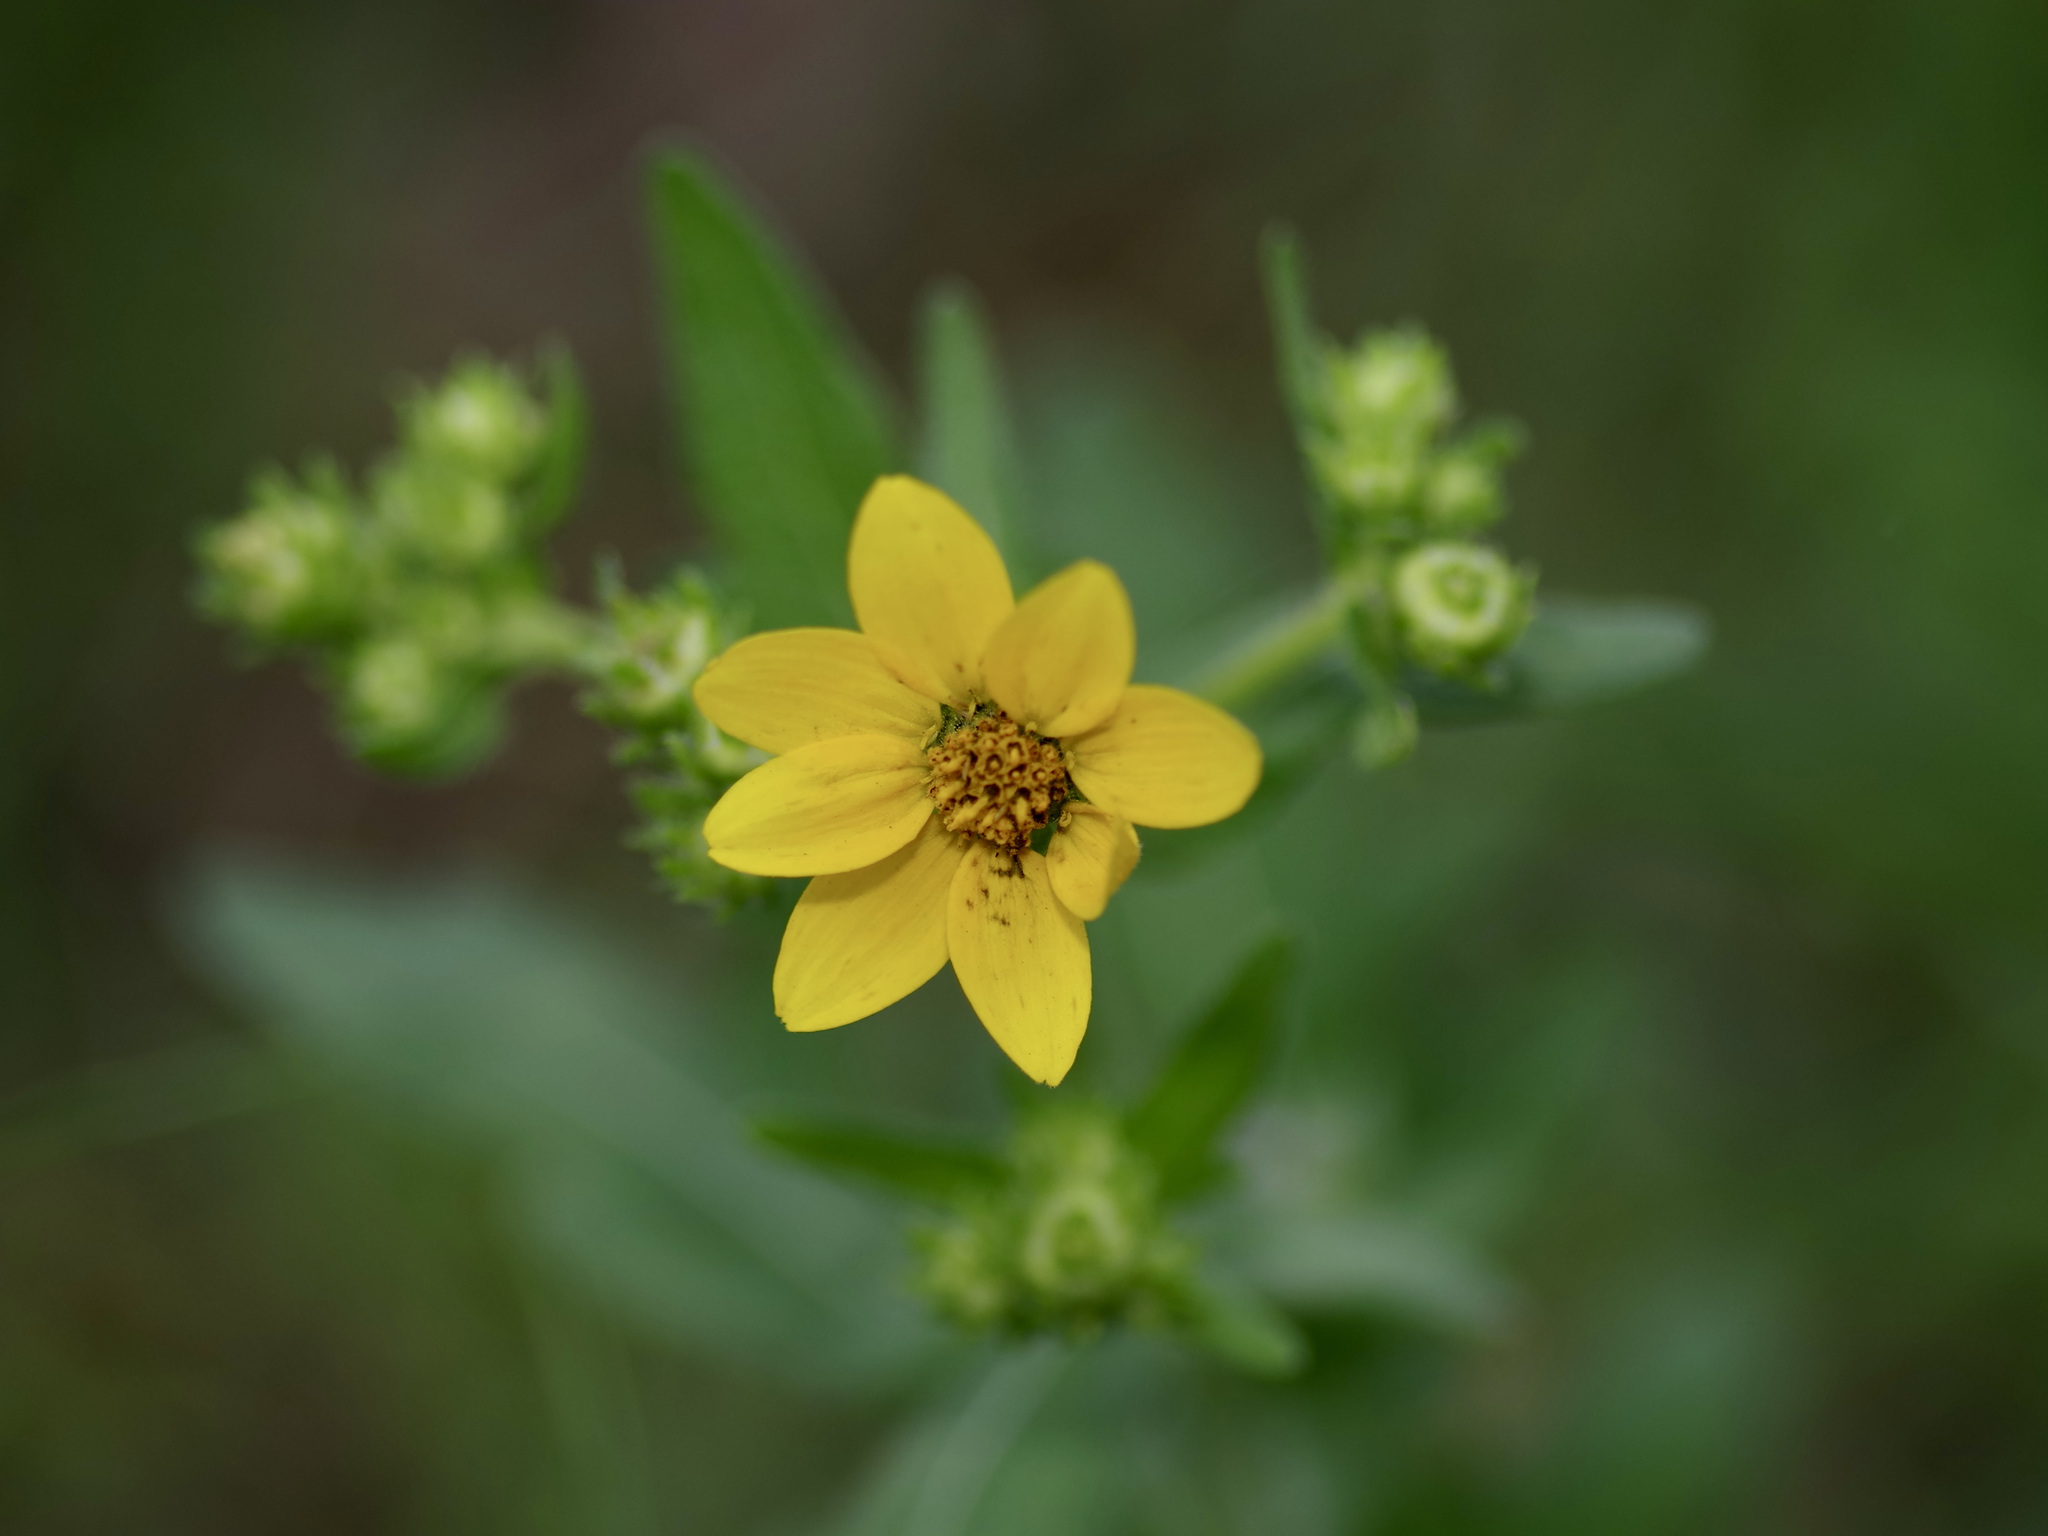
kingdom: Plantae
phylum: Tracheophyta
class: Magnoliopsida
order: Asterales
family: Asteraceae
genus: Engelmannia
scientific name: Engelmannia peristenia
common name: Engelmann's daisy
